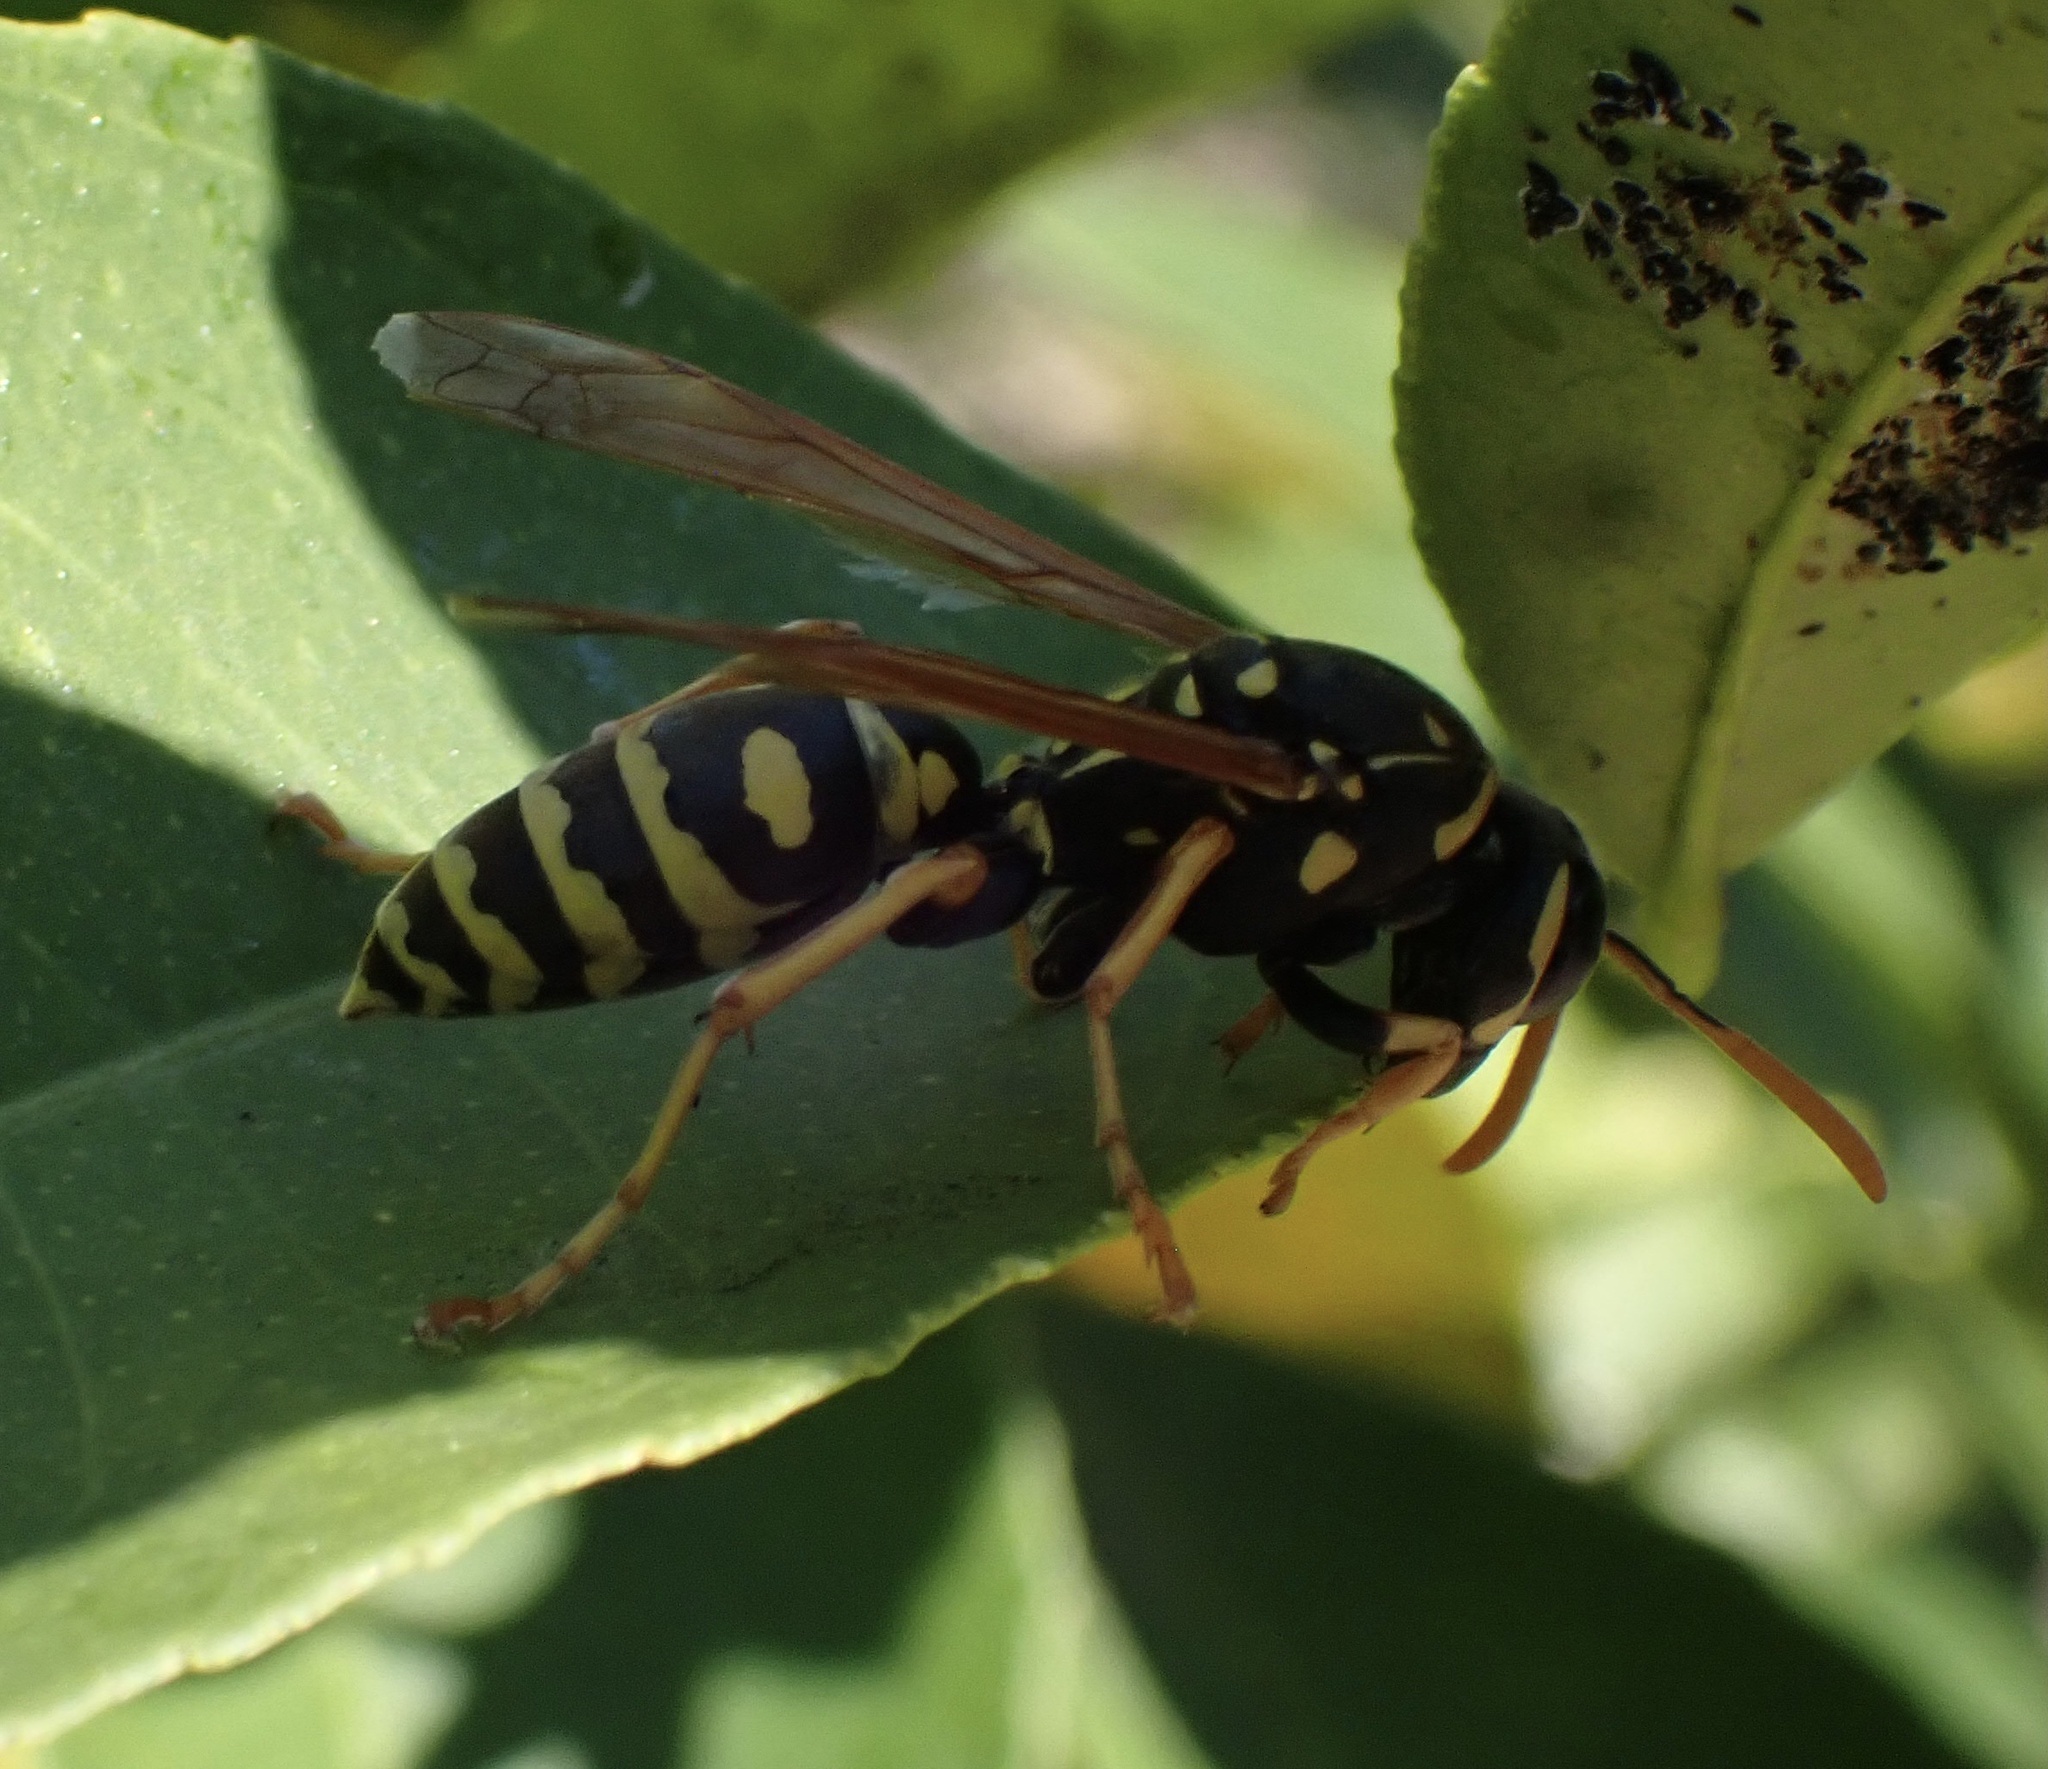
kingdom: Animalia
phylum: Arthropoda
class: Insecta
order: Hymenoptera
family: Eumenidae
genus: Polistes
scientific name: Polistes dominula
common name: Paper wasp
